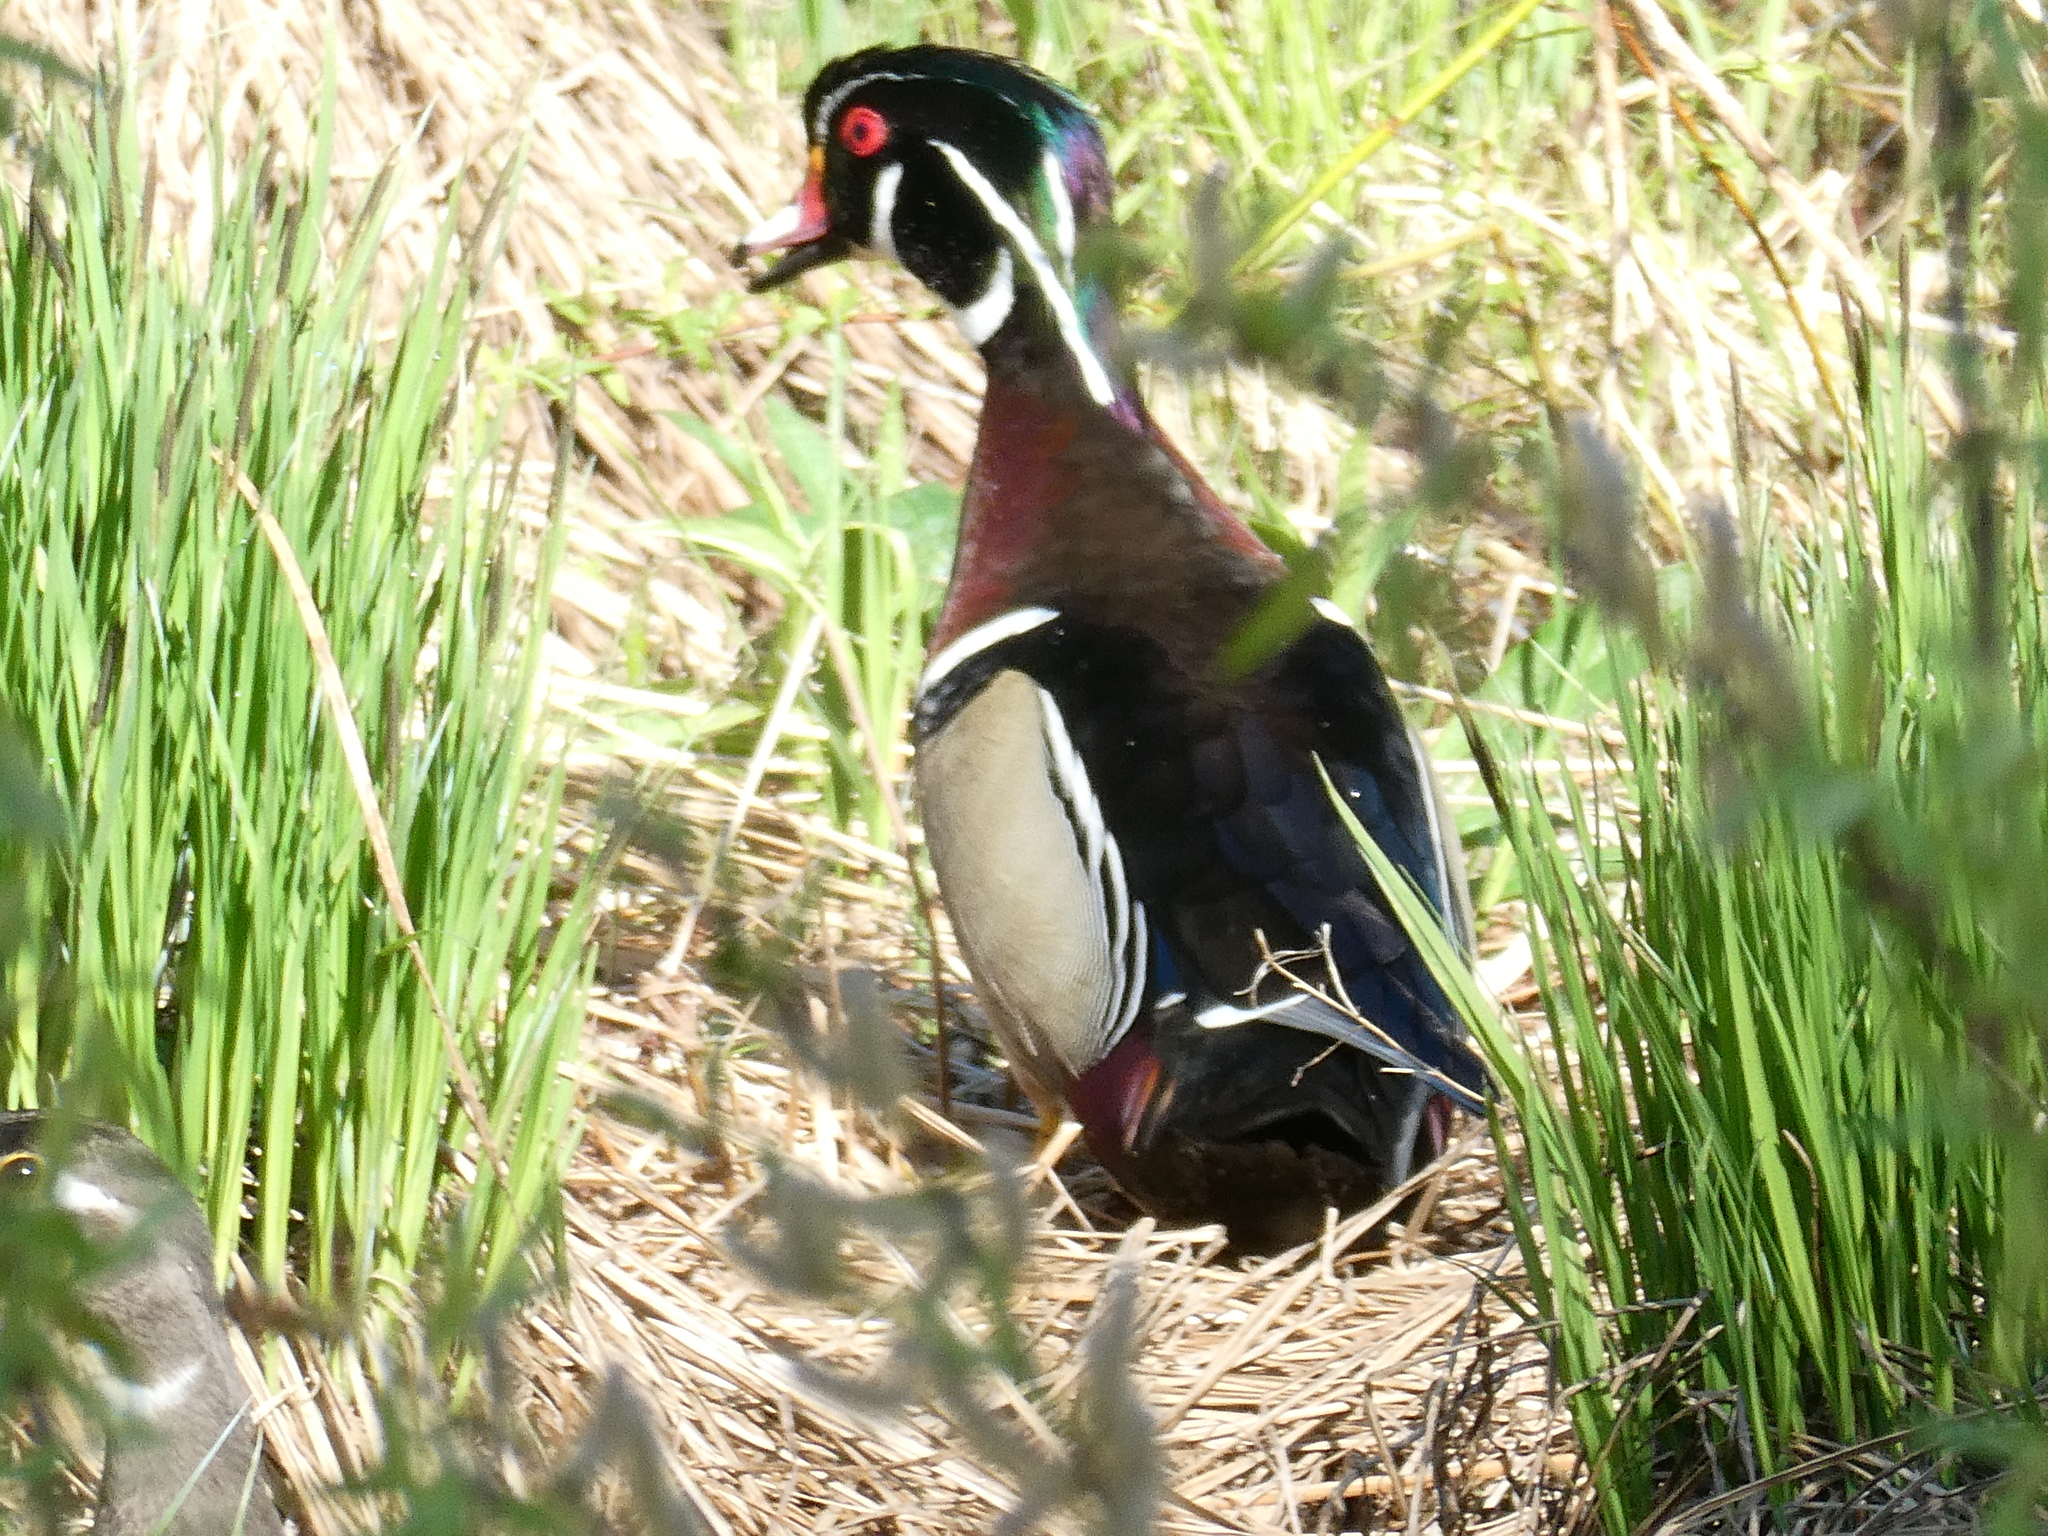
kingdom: Animalia
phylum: Chordata
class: Aves
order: Anseriformes
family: Anatidae
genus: Aix
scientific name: Aix sponsa
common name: Wood duck
